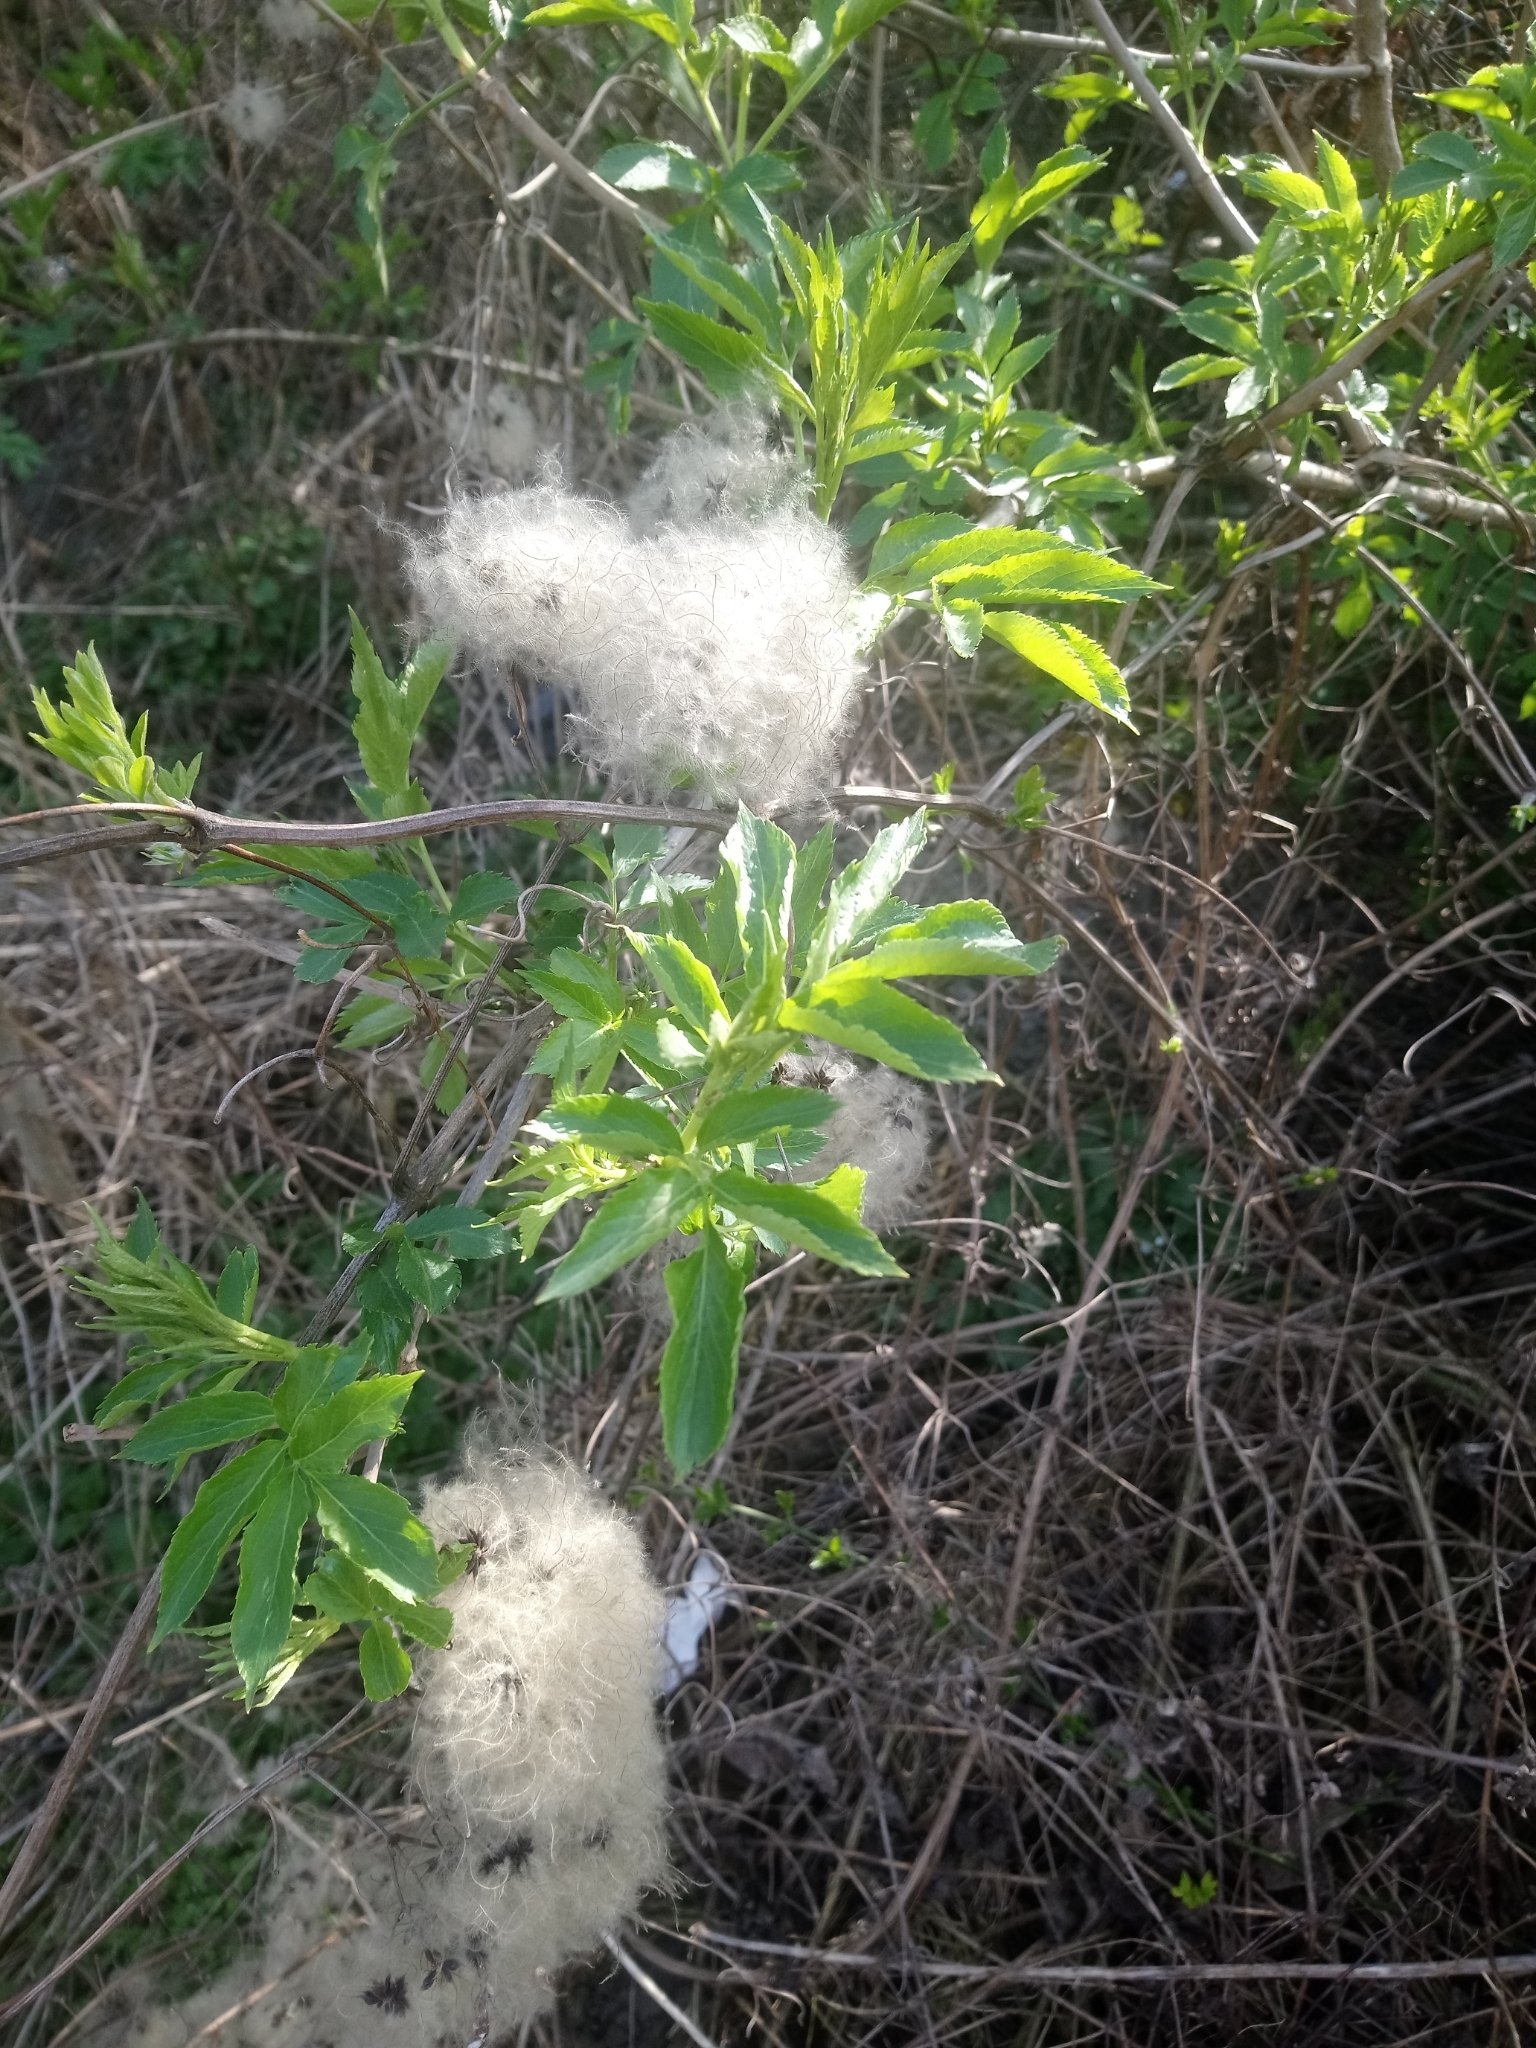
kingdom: Plantae
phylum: Tracheophyta
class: Magnoliopsida
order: Ranunculales
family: Ranunculaceae
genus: Clematis
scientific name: Clematis vitalba
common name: Evergreen clematis
